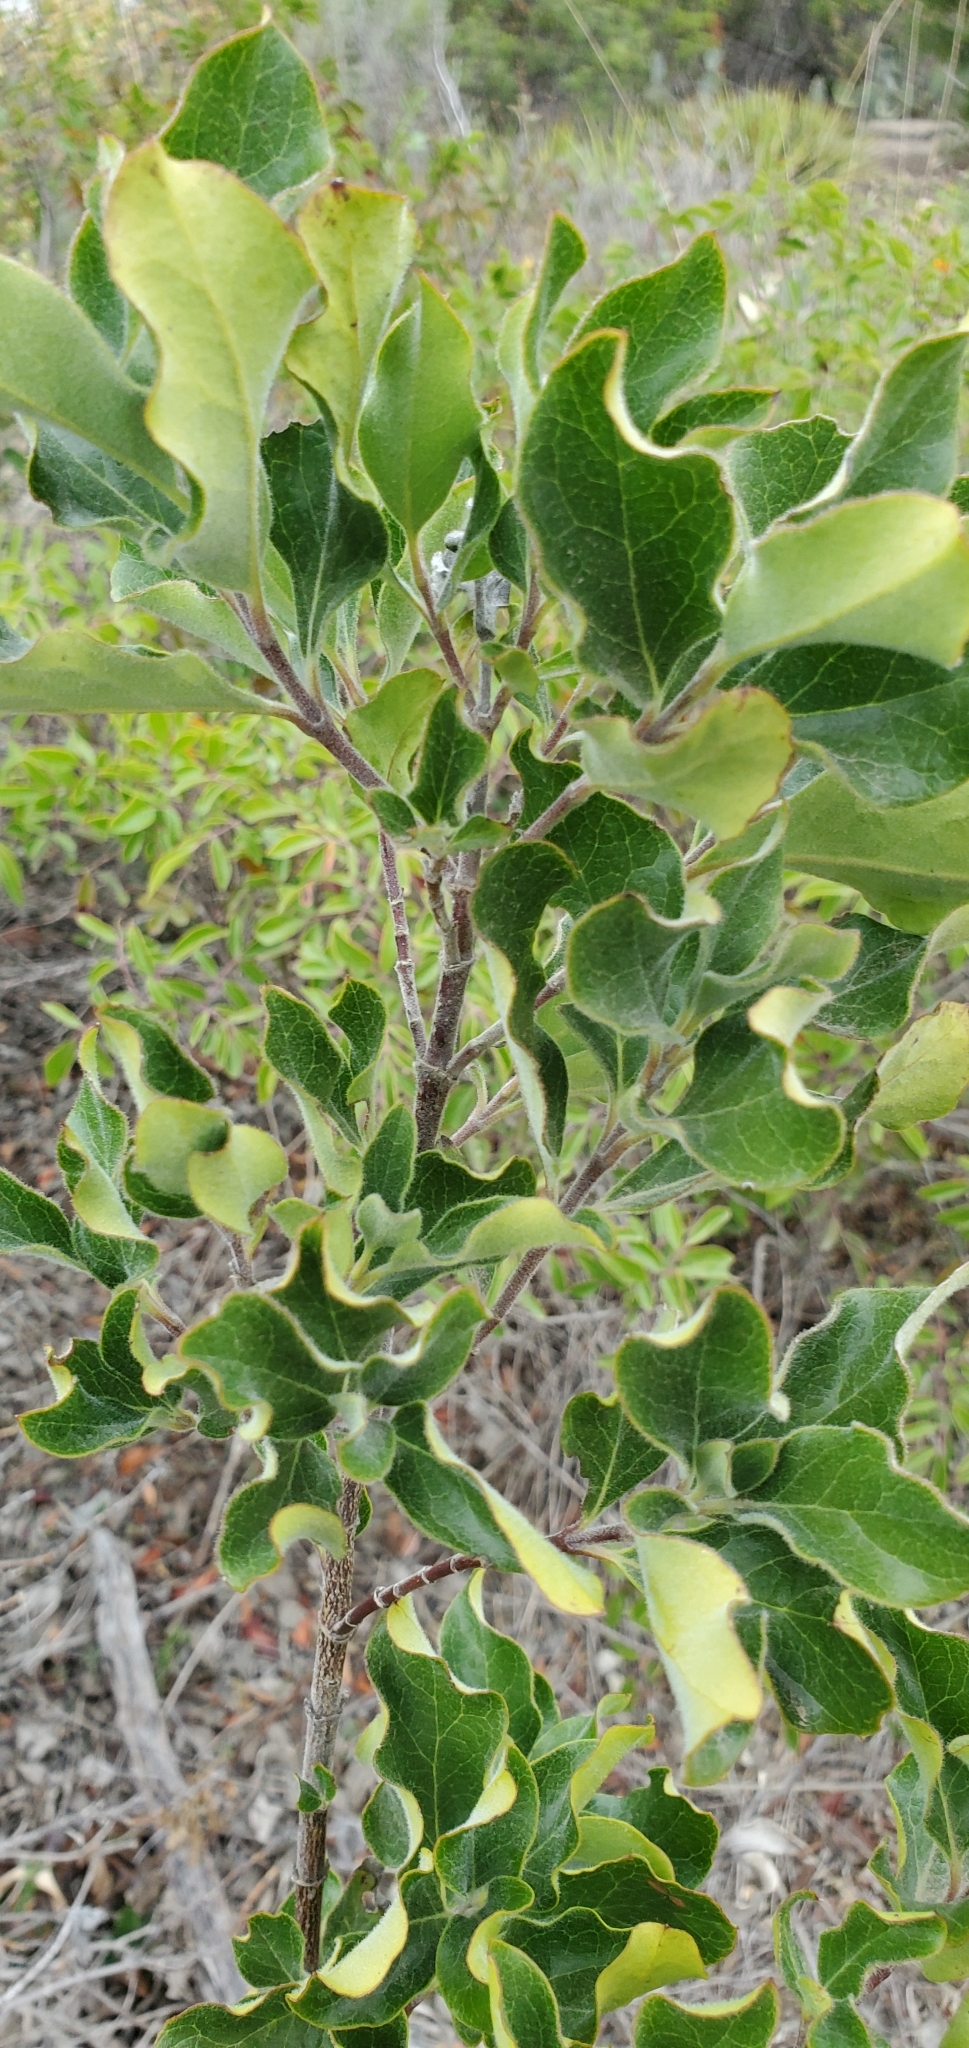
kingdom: Plantae
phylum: Tracheophyta
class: Magnoliopsida
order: Garryales
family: Garryaceae
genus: Garrya
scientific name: Garrya lindheimeri
